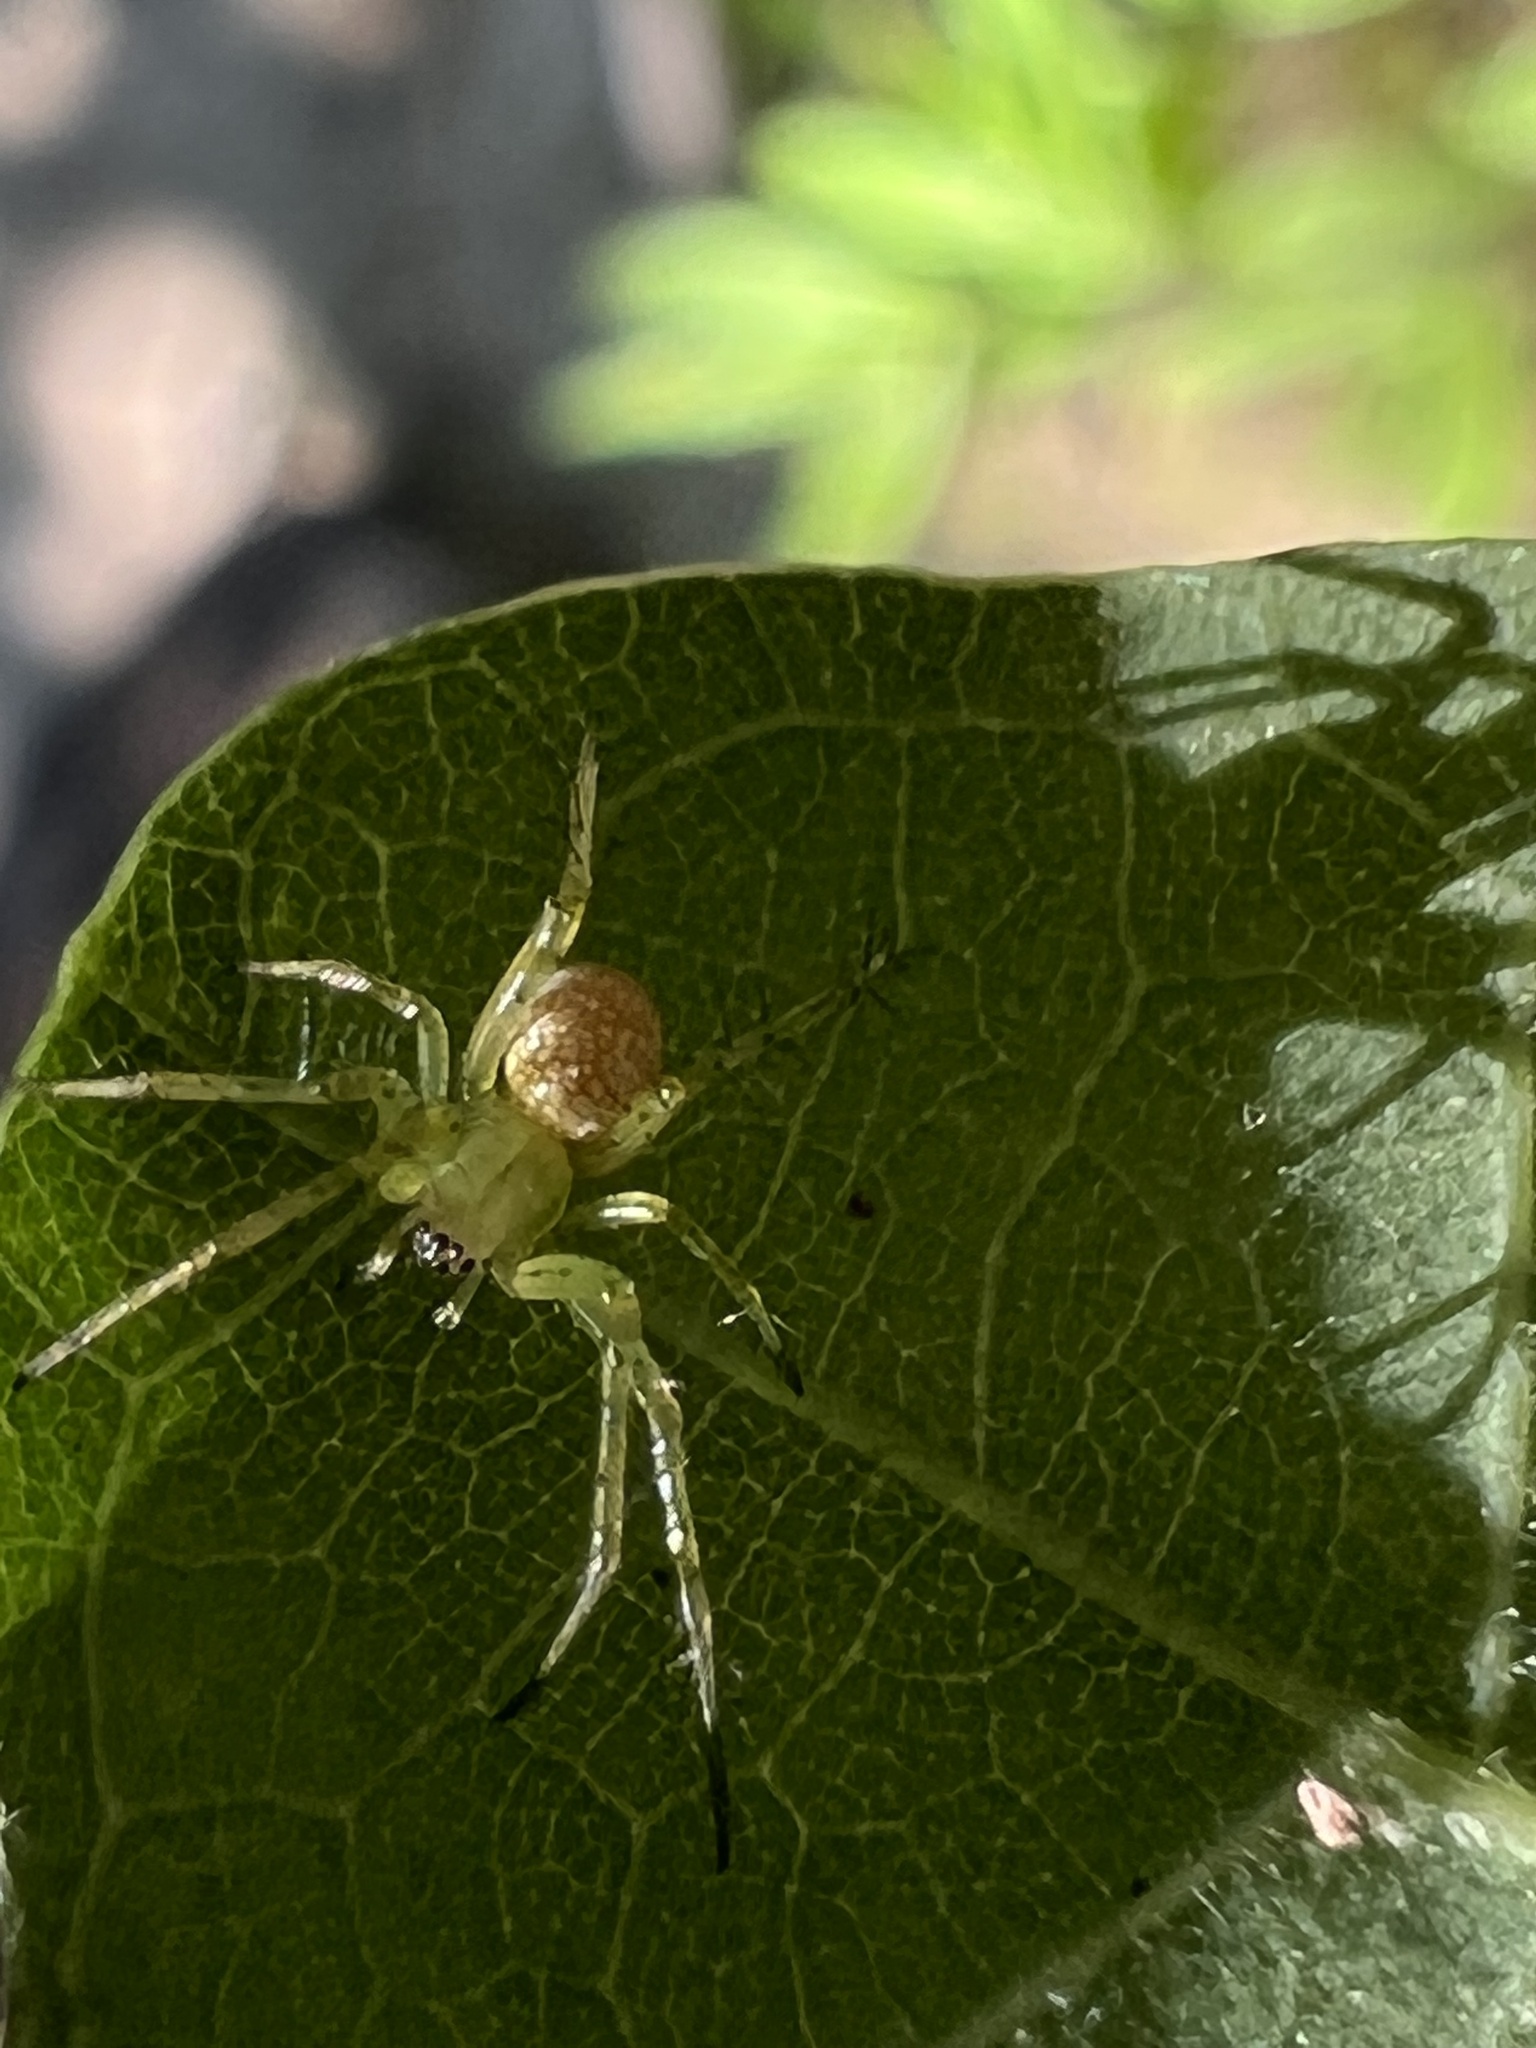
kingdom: Animalia
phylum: Arthropoda
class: Arachnida
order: Araneae
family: Araneidae
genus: Mangora
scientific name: Mangora maculata
